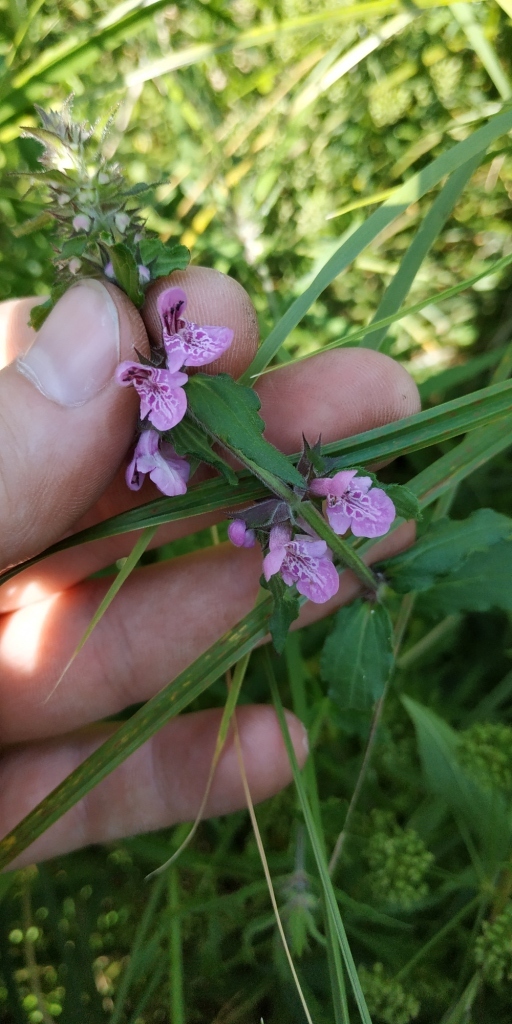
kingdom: Plantae
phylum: Tracheophyta
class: Magnoliopsida
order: Lamiales
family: Lamiaceae
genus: Stachys
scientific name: Stachys palustris
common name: Marsh woundwort
